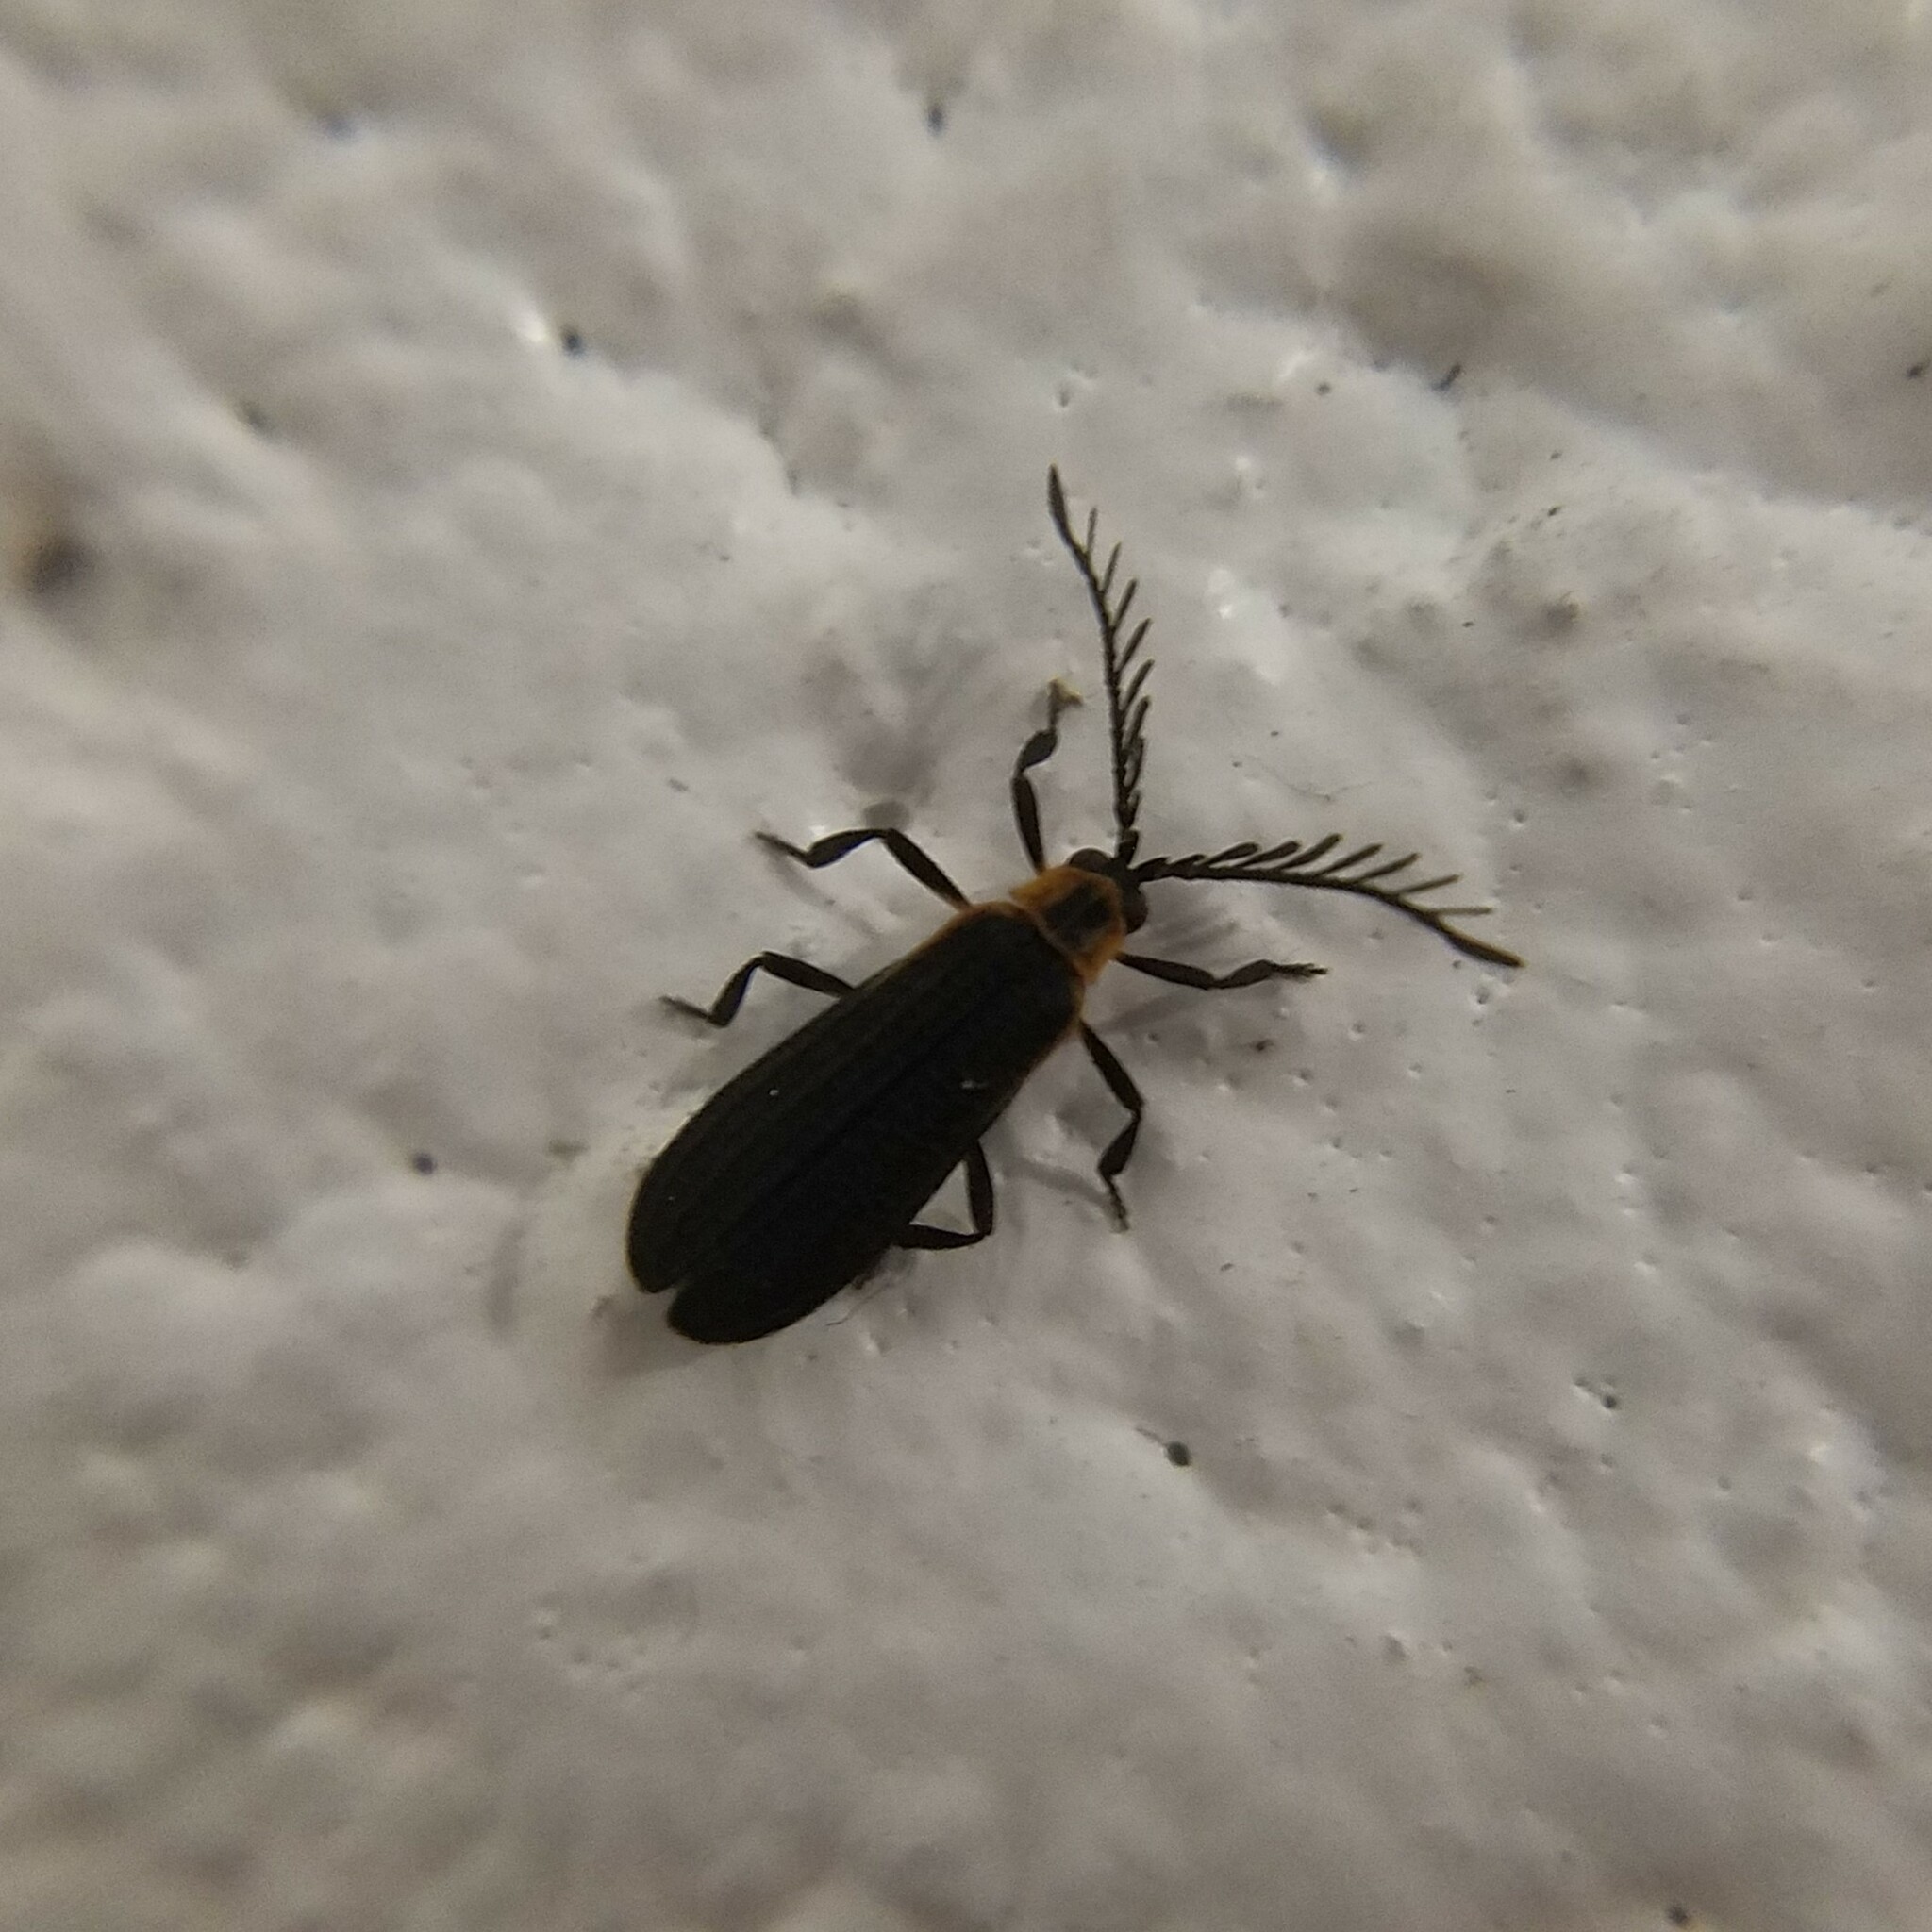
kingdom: Animalia
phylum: Arthropoda
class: Insecta
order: Coleoptera
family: Lycidae
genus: Leptoceletes
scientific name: Leptoceletes basalis
